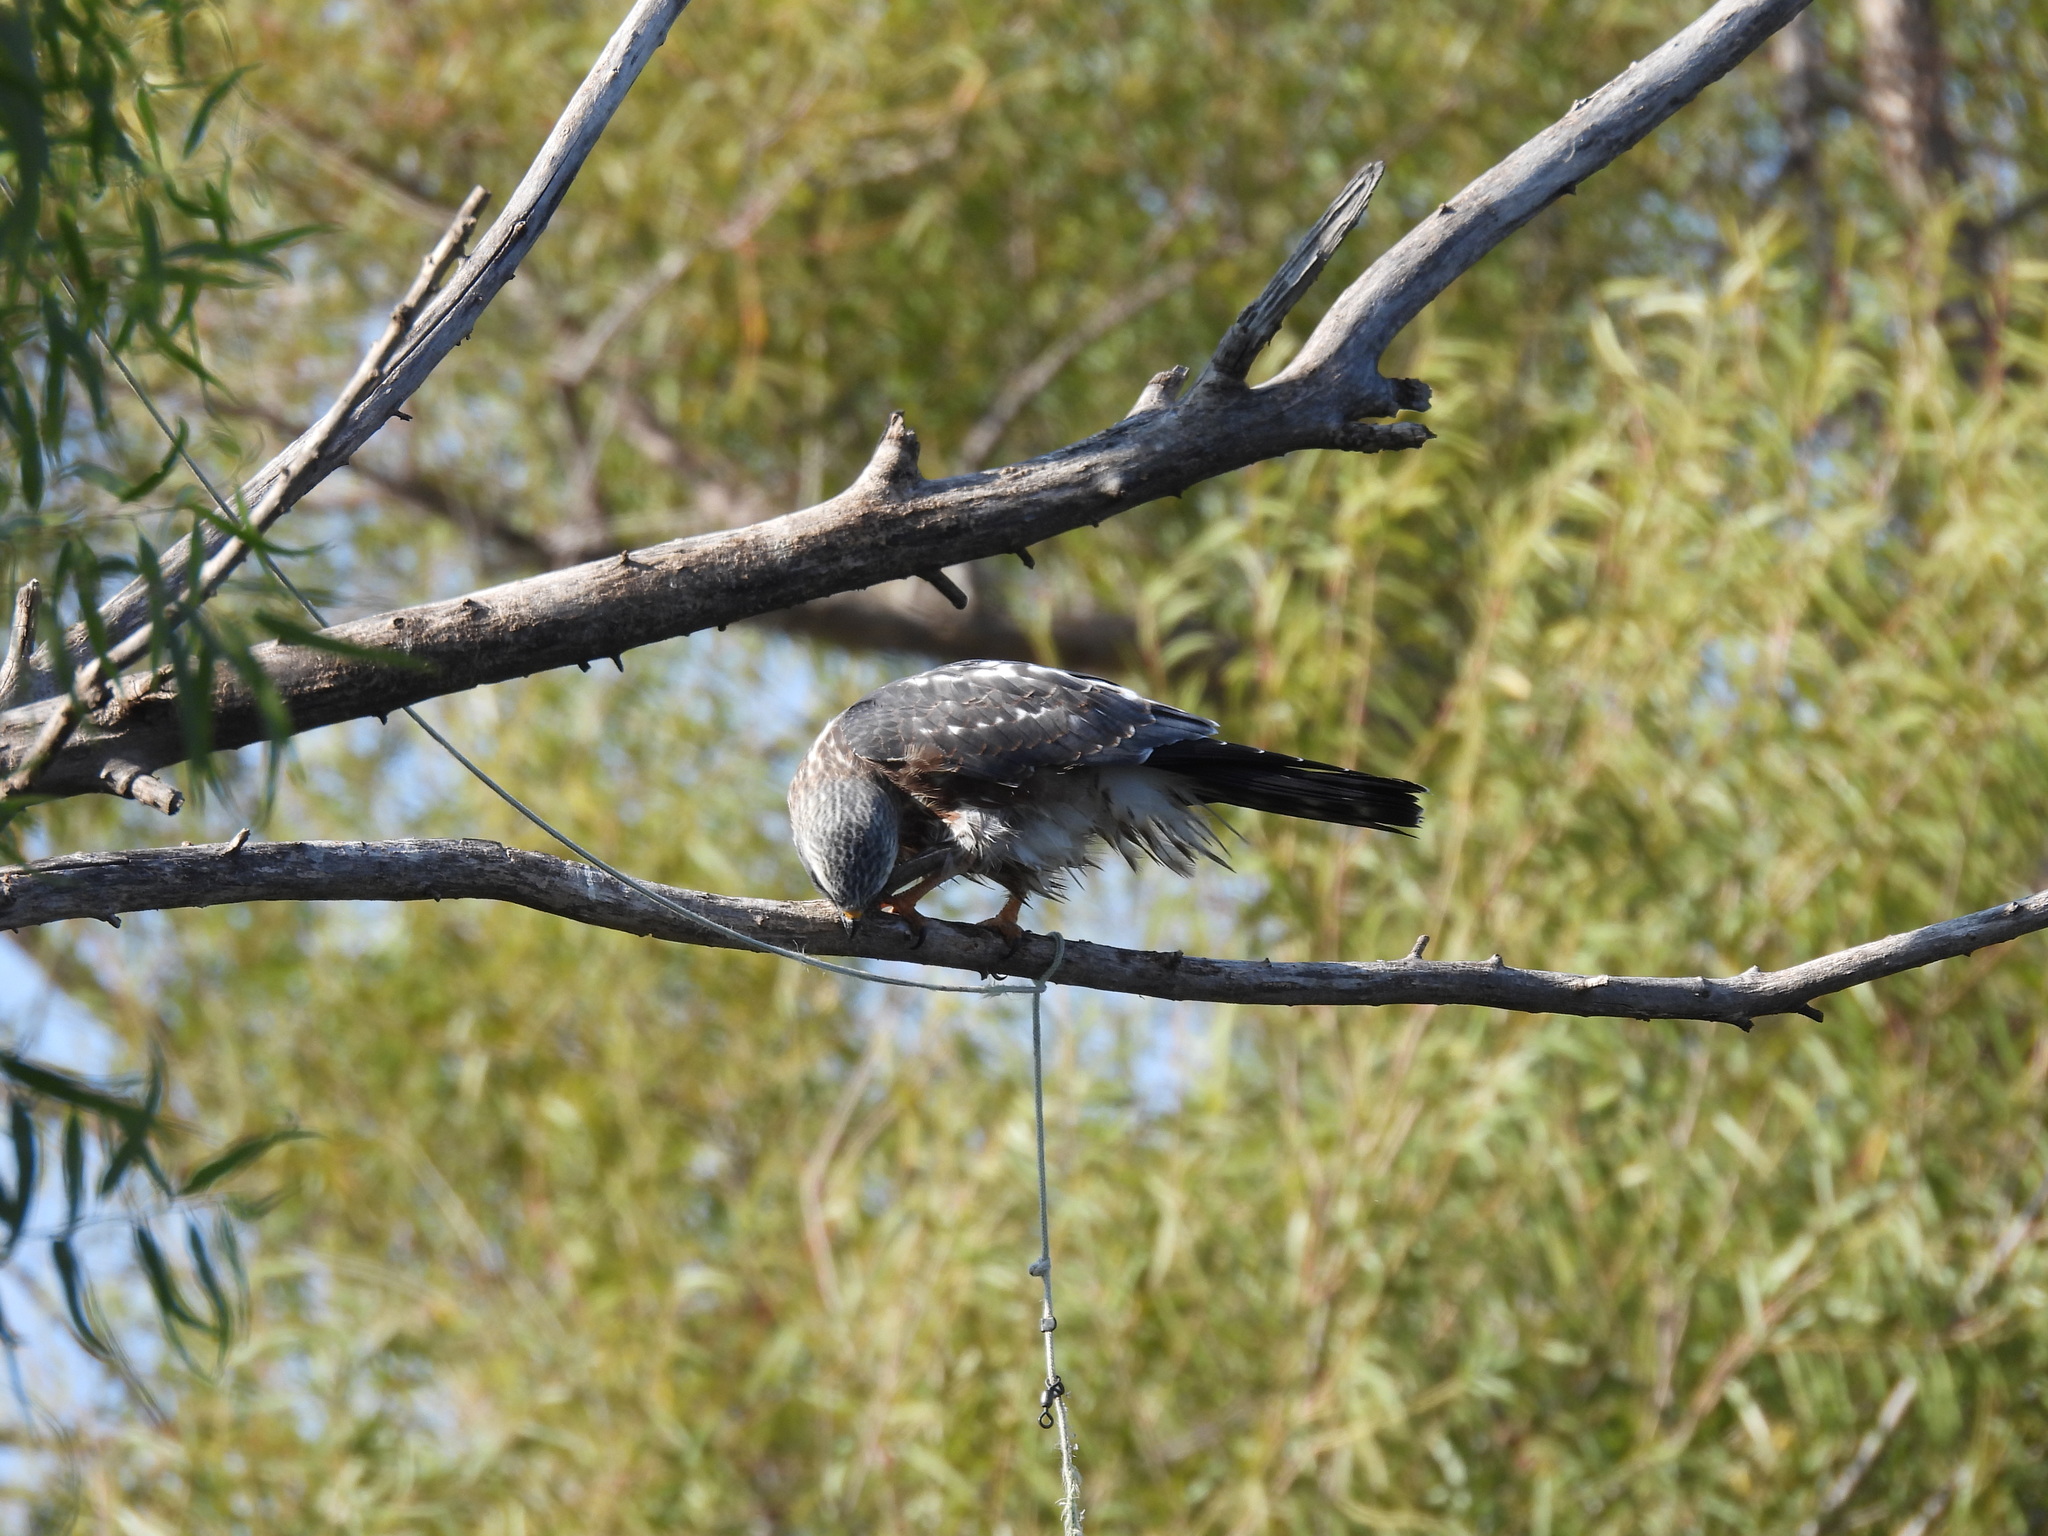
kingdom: Animalia
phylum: Chordata
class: Aves
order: Accipitriformes
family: Accipitridae
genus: Ictinia
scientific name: Ictinia mississippiensis
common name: Mississippi kite
